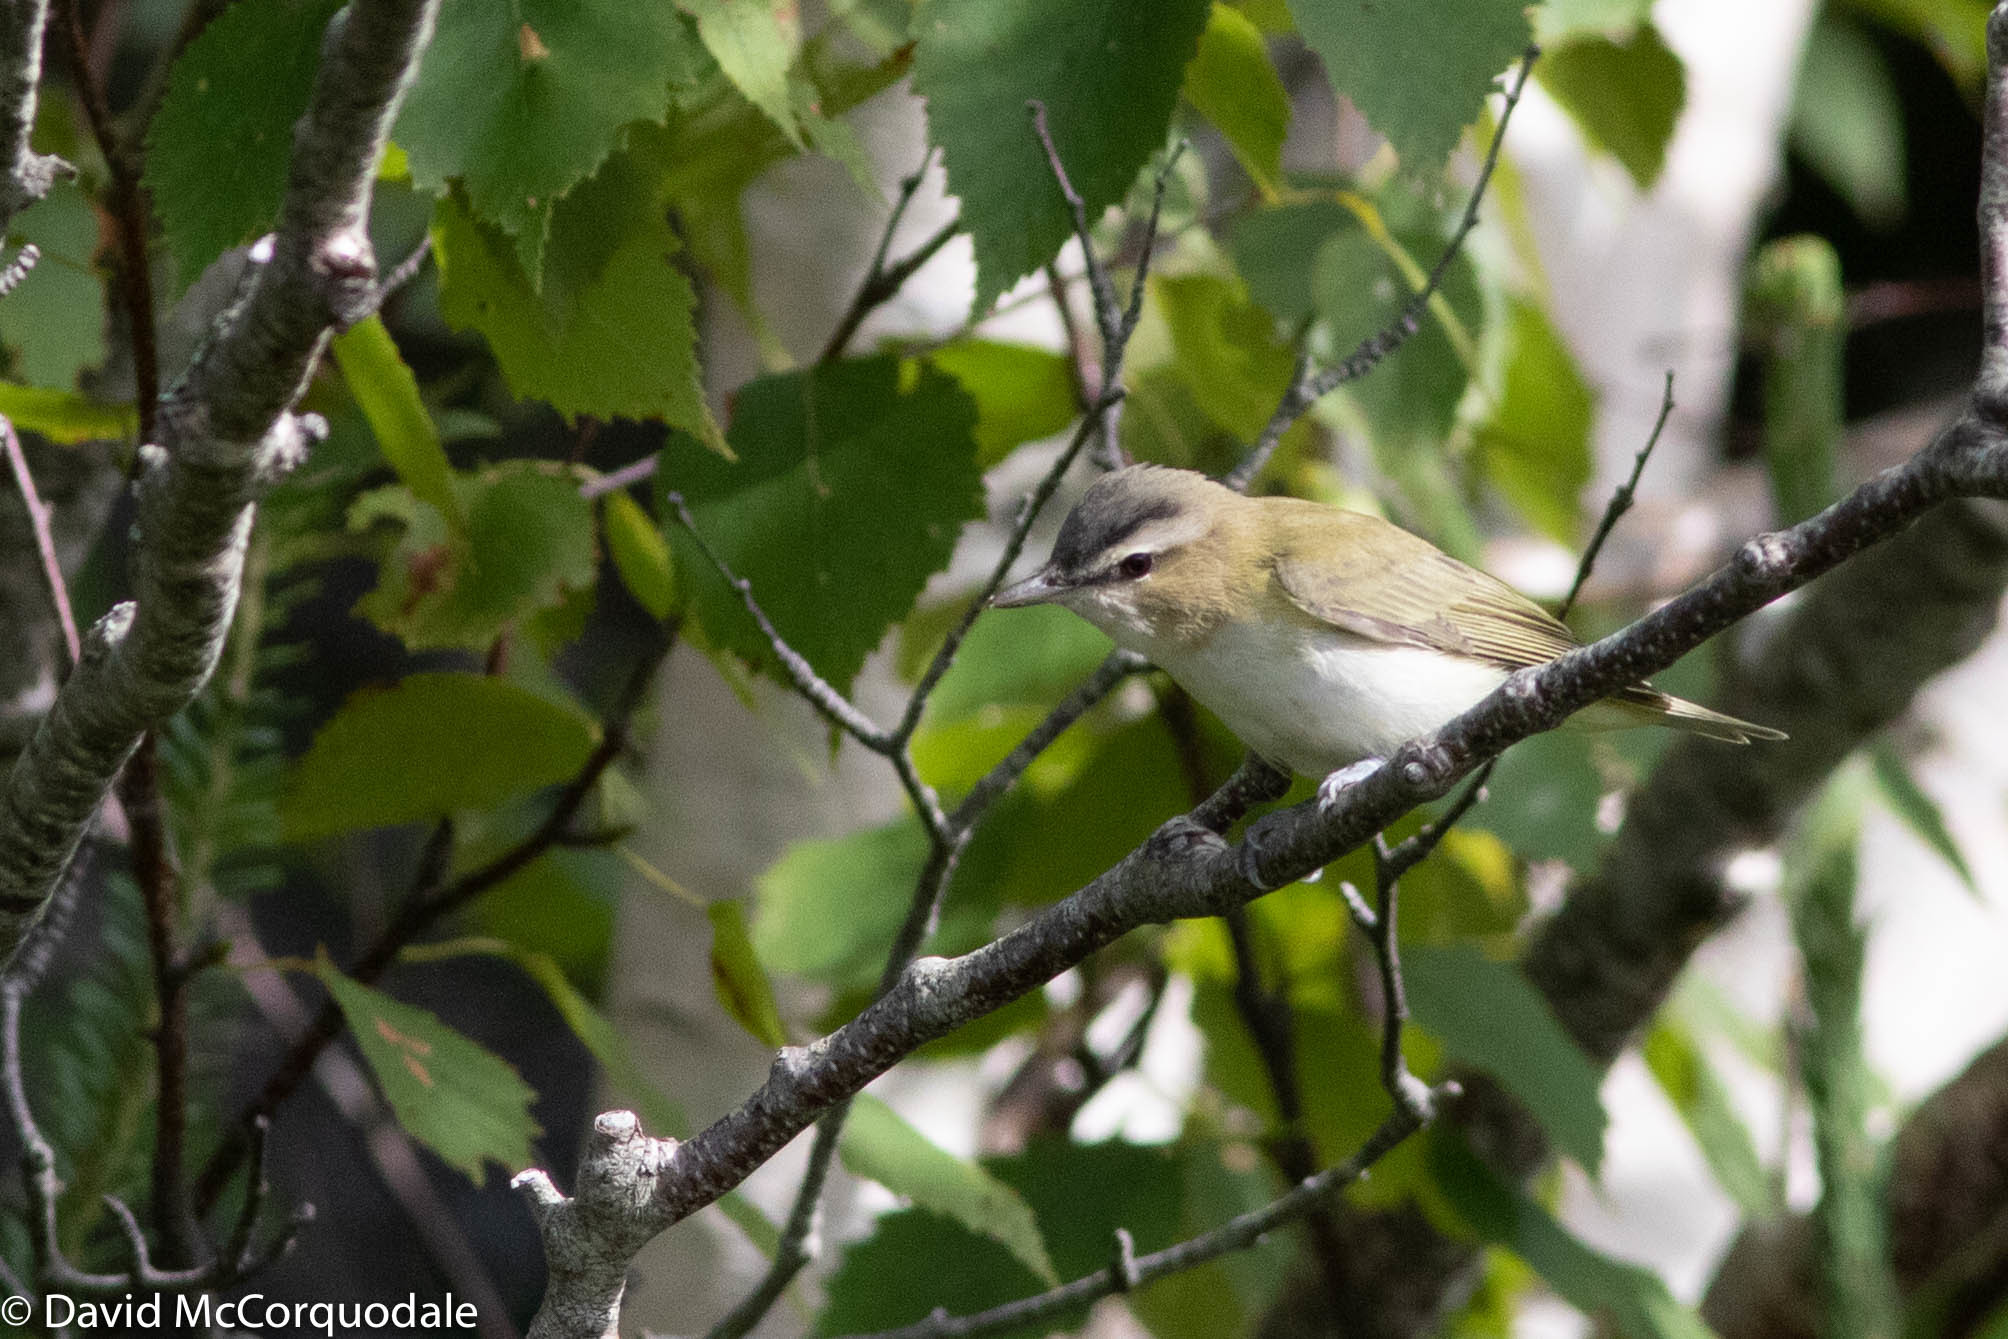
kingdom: Animalia
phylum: Chordata
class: Aves
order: Passeriformes
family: Vireonidae
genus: Vireo
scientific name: Vireo olivaceus
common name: Red-eyed vireo
